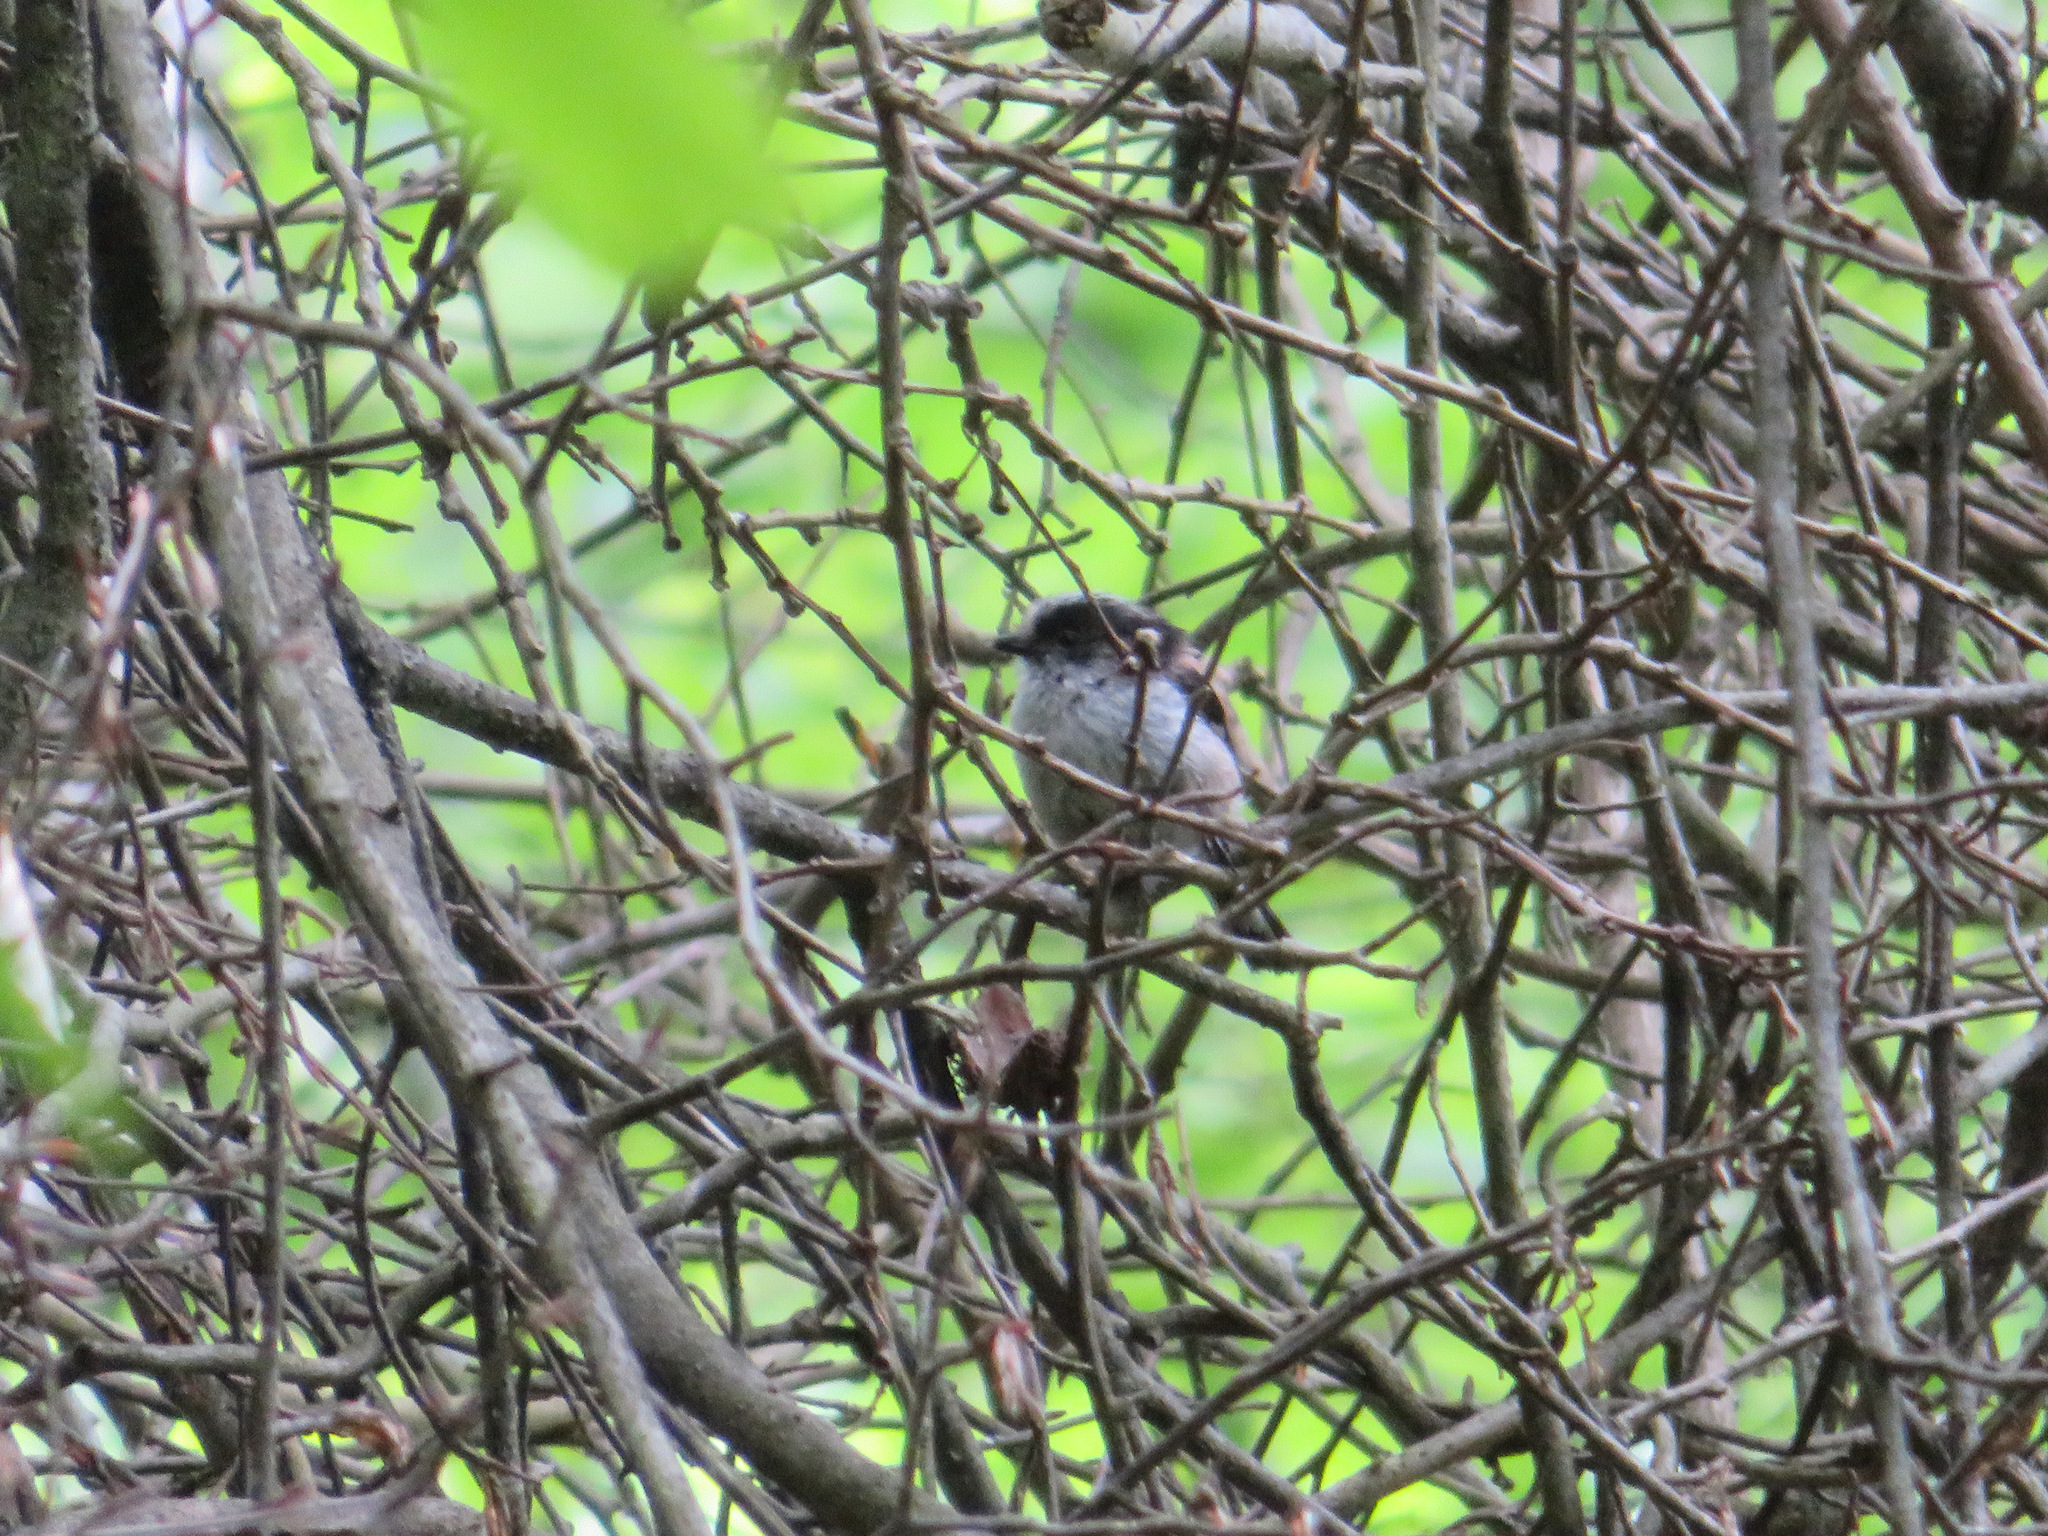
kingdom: Animalia
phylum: Chordata
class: Aves
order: Passeriformes
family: Aegithalidae
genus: Aegithalos
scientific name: Aegithalos caudatus
